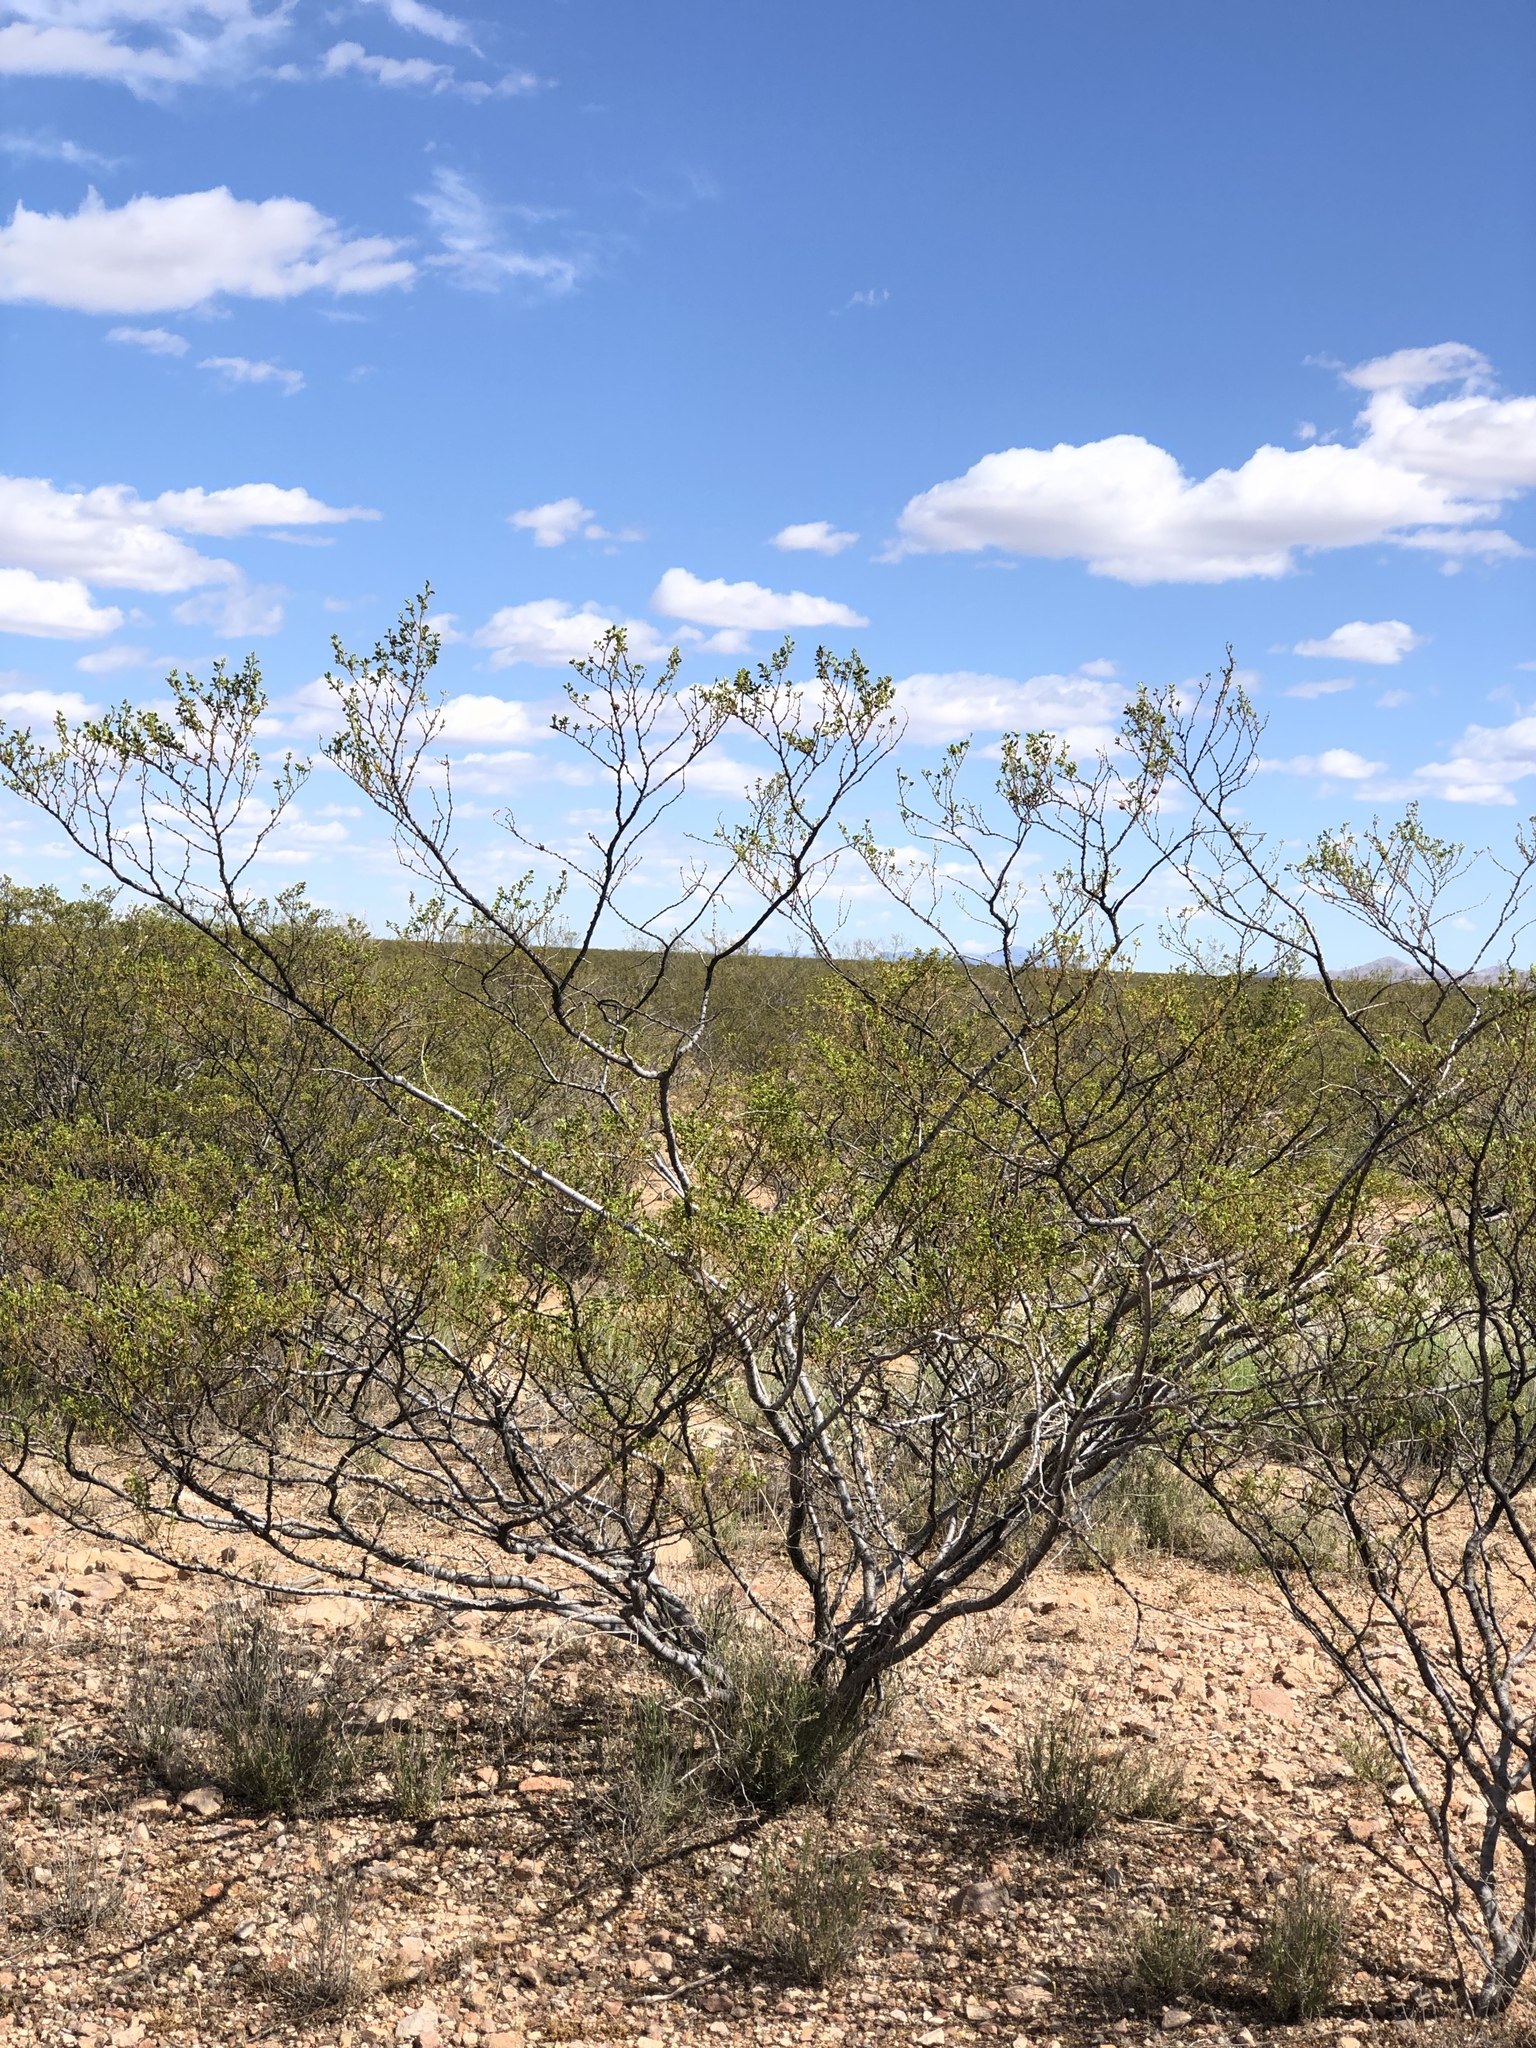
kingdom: Plantae
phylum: Tracheophyta
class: Magnoliopsida
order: Zygophyllales
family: Zygophyllaceae
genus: Larrea
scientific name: Larrea tridentata
